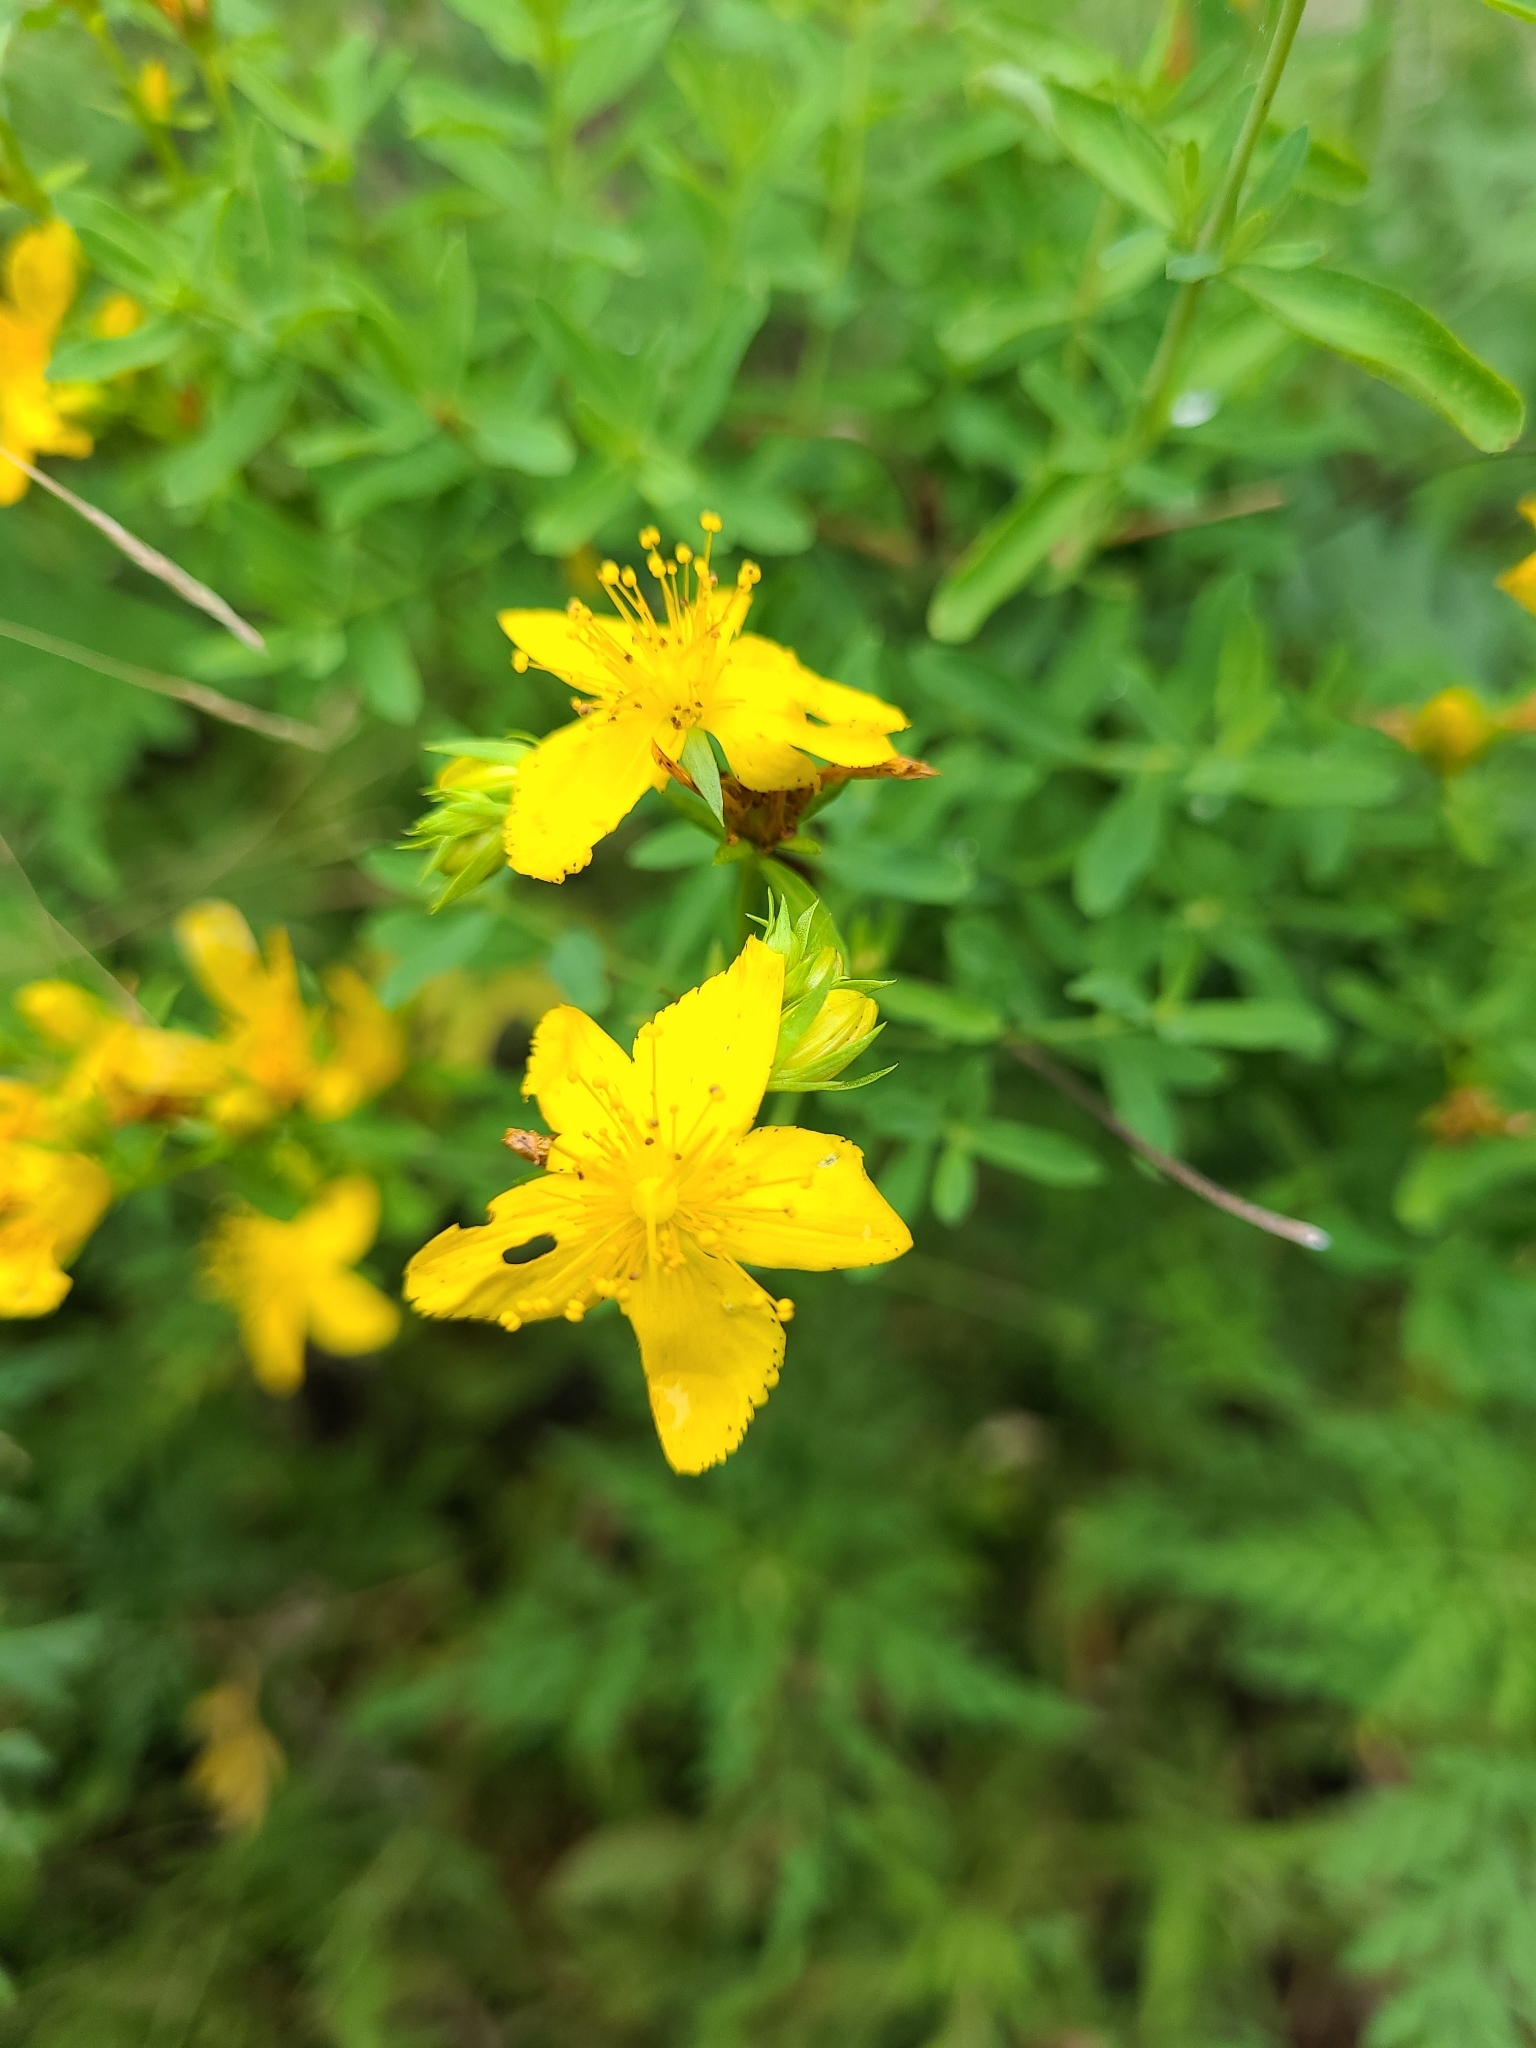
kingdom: Plantae
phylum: Tracheophyta
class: Magnoliopsida
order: Malpighiales
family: Hypericaceae
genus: Hypericum
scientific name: Hypericum perforatum
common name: Common st. johnswort
